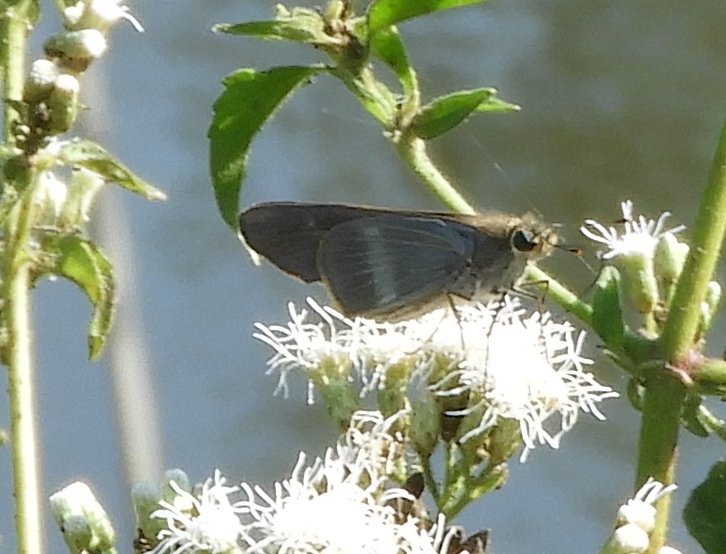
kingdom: Animalia
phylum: Arthropoda
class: Insecta
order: Lepidoptera
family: Hesperiidae
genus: Panoquina
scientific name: Panoquina fusina
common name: Evans' skipper
